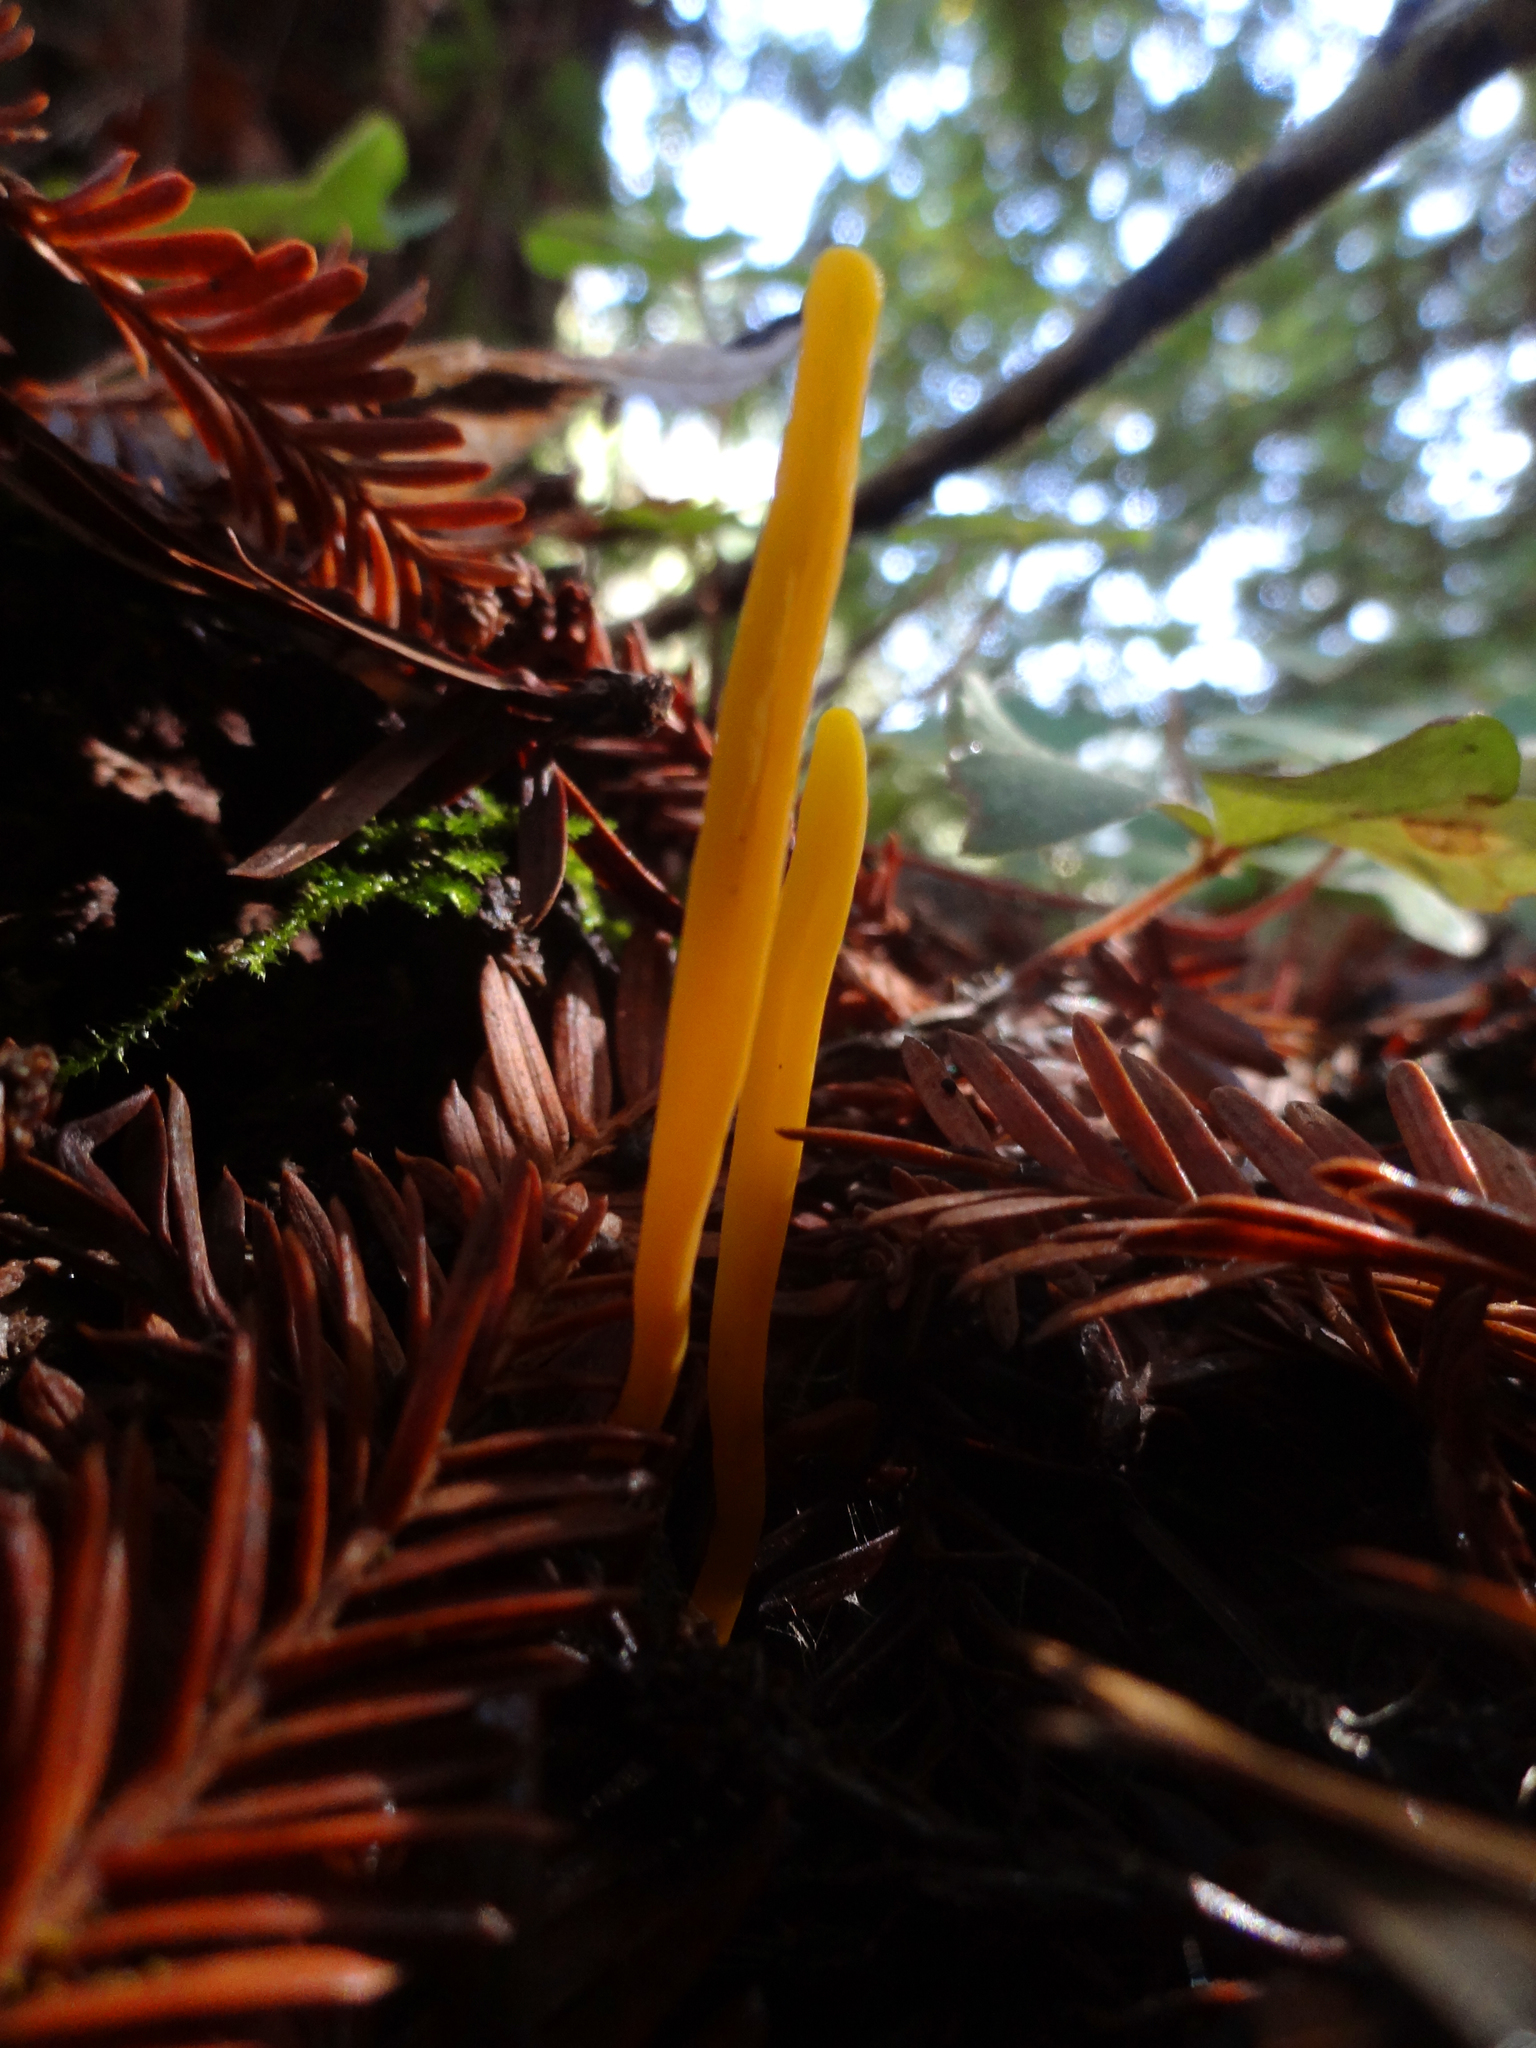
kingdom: Fungi
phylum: Basidiomycota
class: Agaricomycetes
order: Agaricales
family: Clavariaceae
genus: Clavulinopsis
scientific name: Clavulinopsis laeticolor
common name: Handsome club
